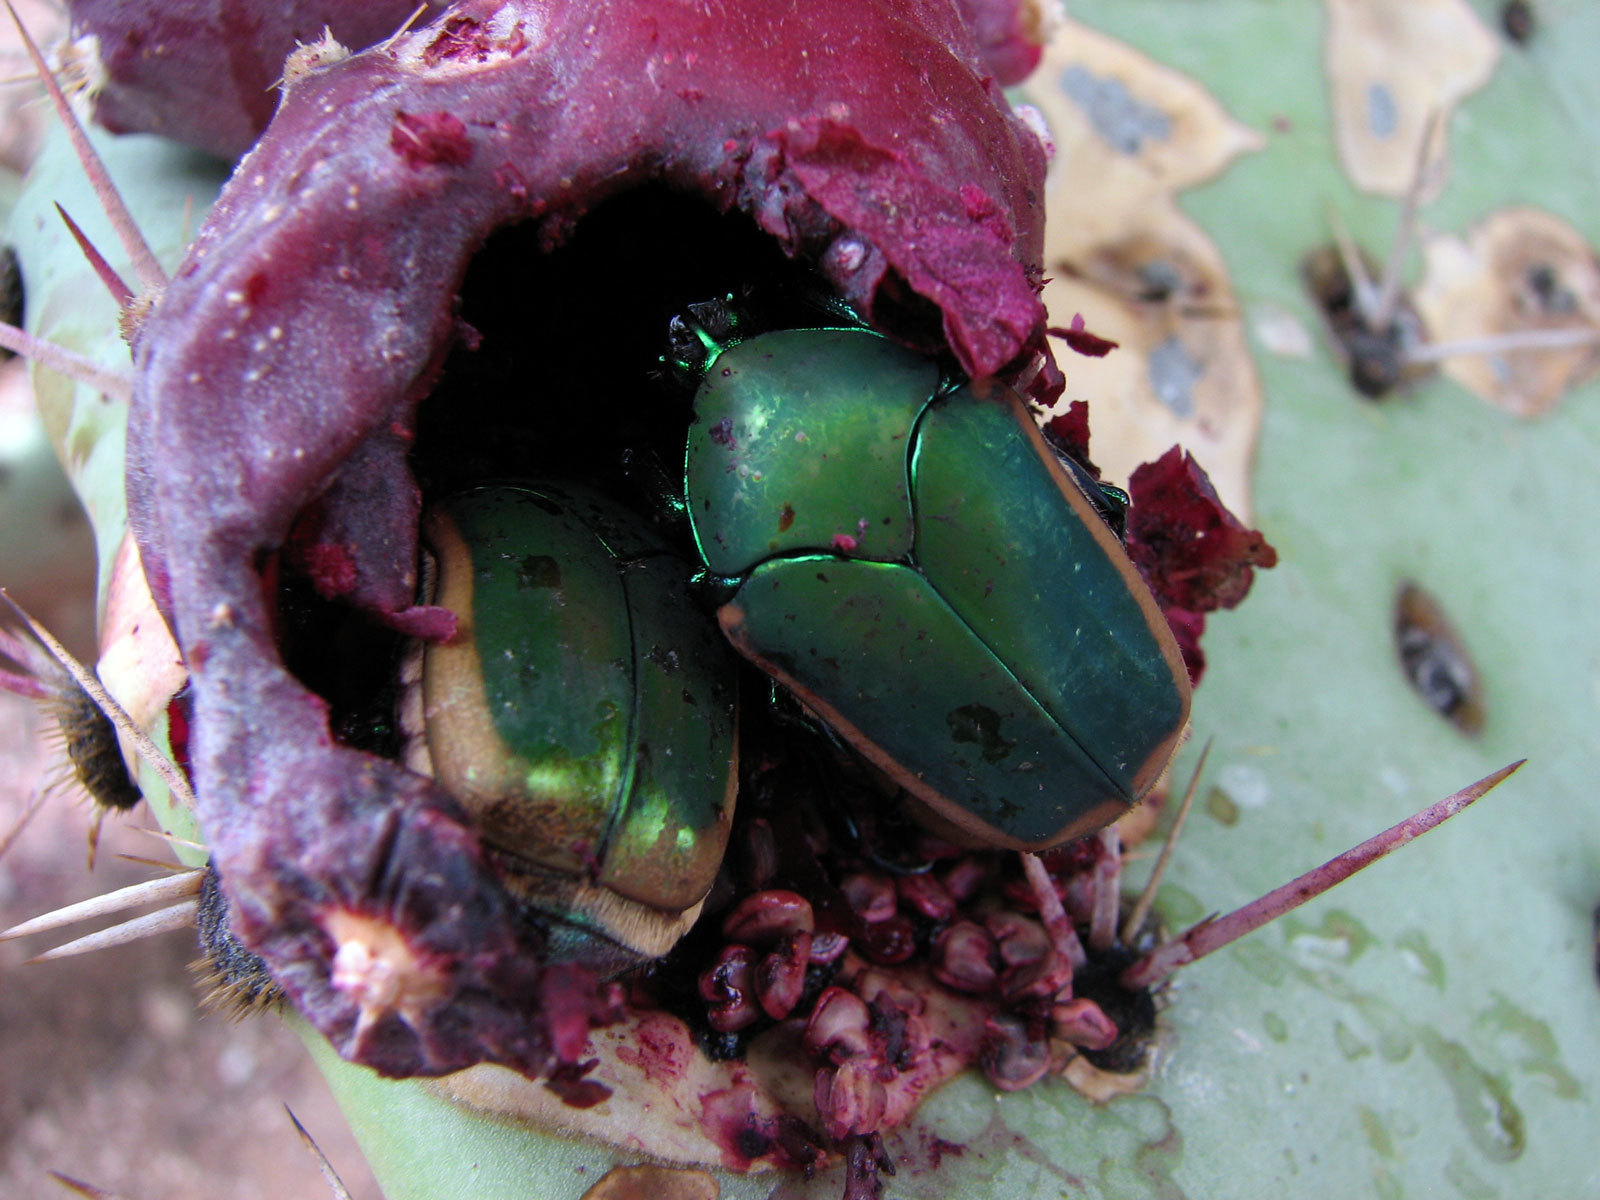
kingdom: Animalia
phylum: Arthropoda
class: Insecta
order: Coleoptera
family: Scarabaeidae
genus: Cotinis
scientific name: Cotinis mutabilis
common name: Figeater beetle
